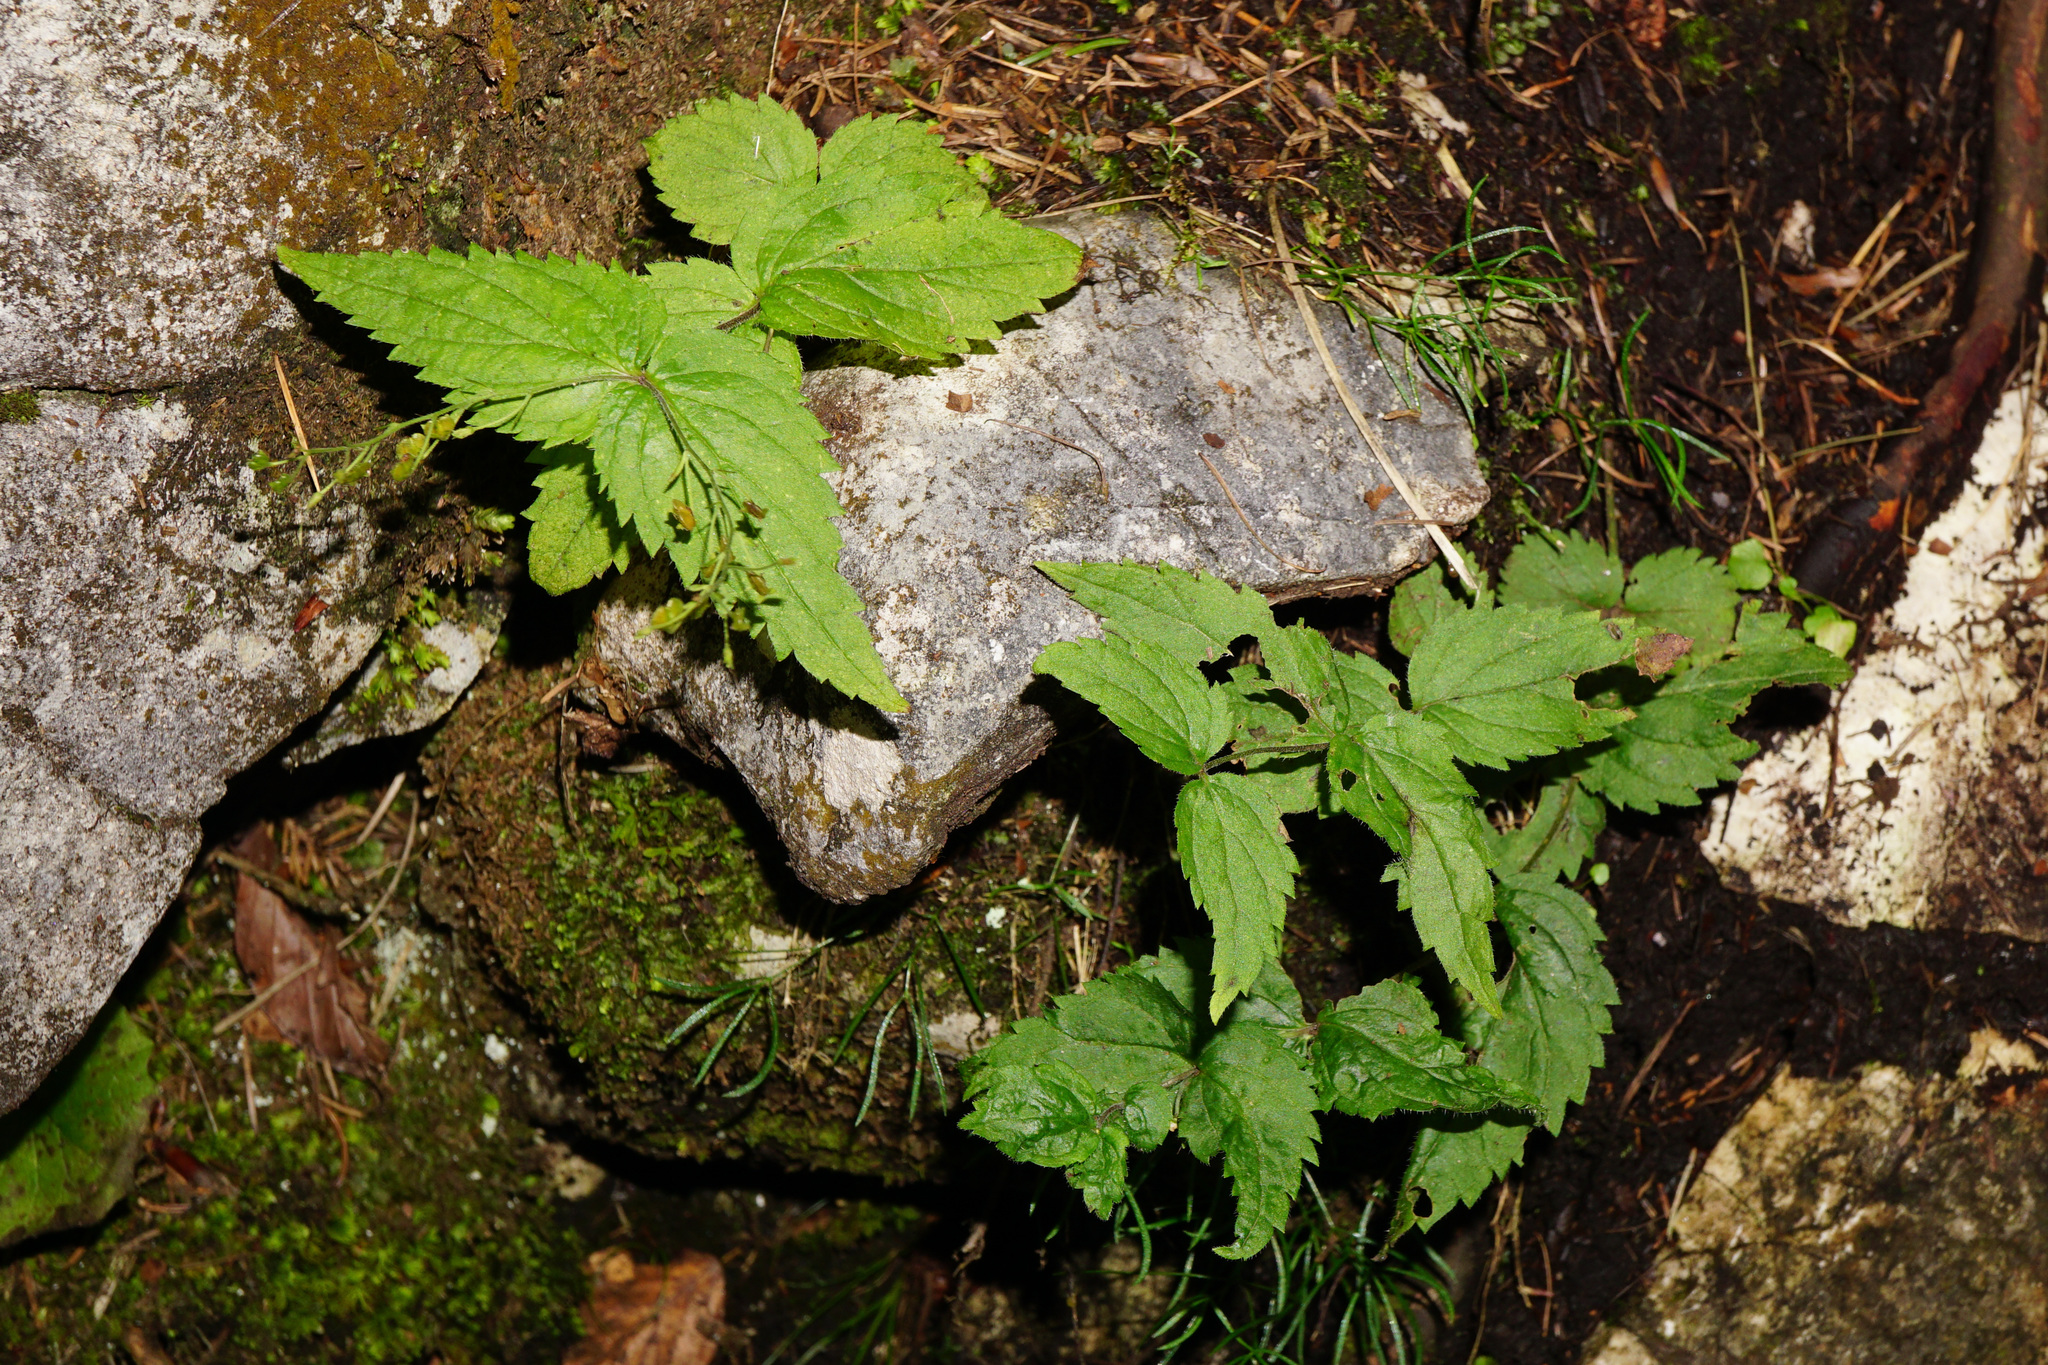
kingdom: Plantae
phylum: Tracheophyta
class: Magnoliopsida
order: Lamiales
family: Plantaginaceae
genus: Veronica
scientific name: Veronica urticifolia
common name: Nettle-leaf speedwell
